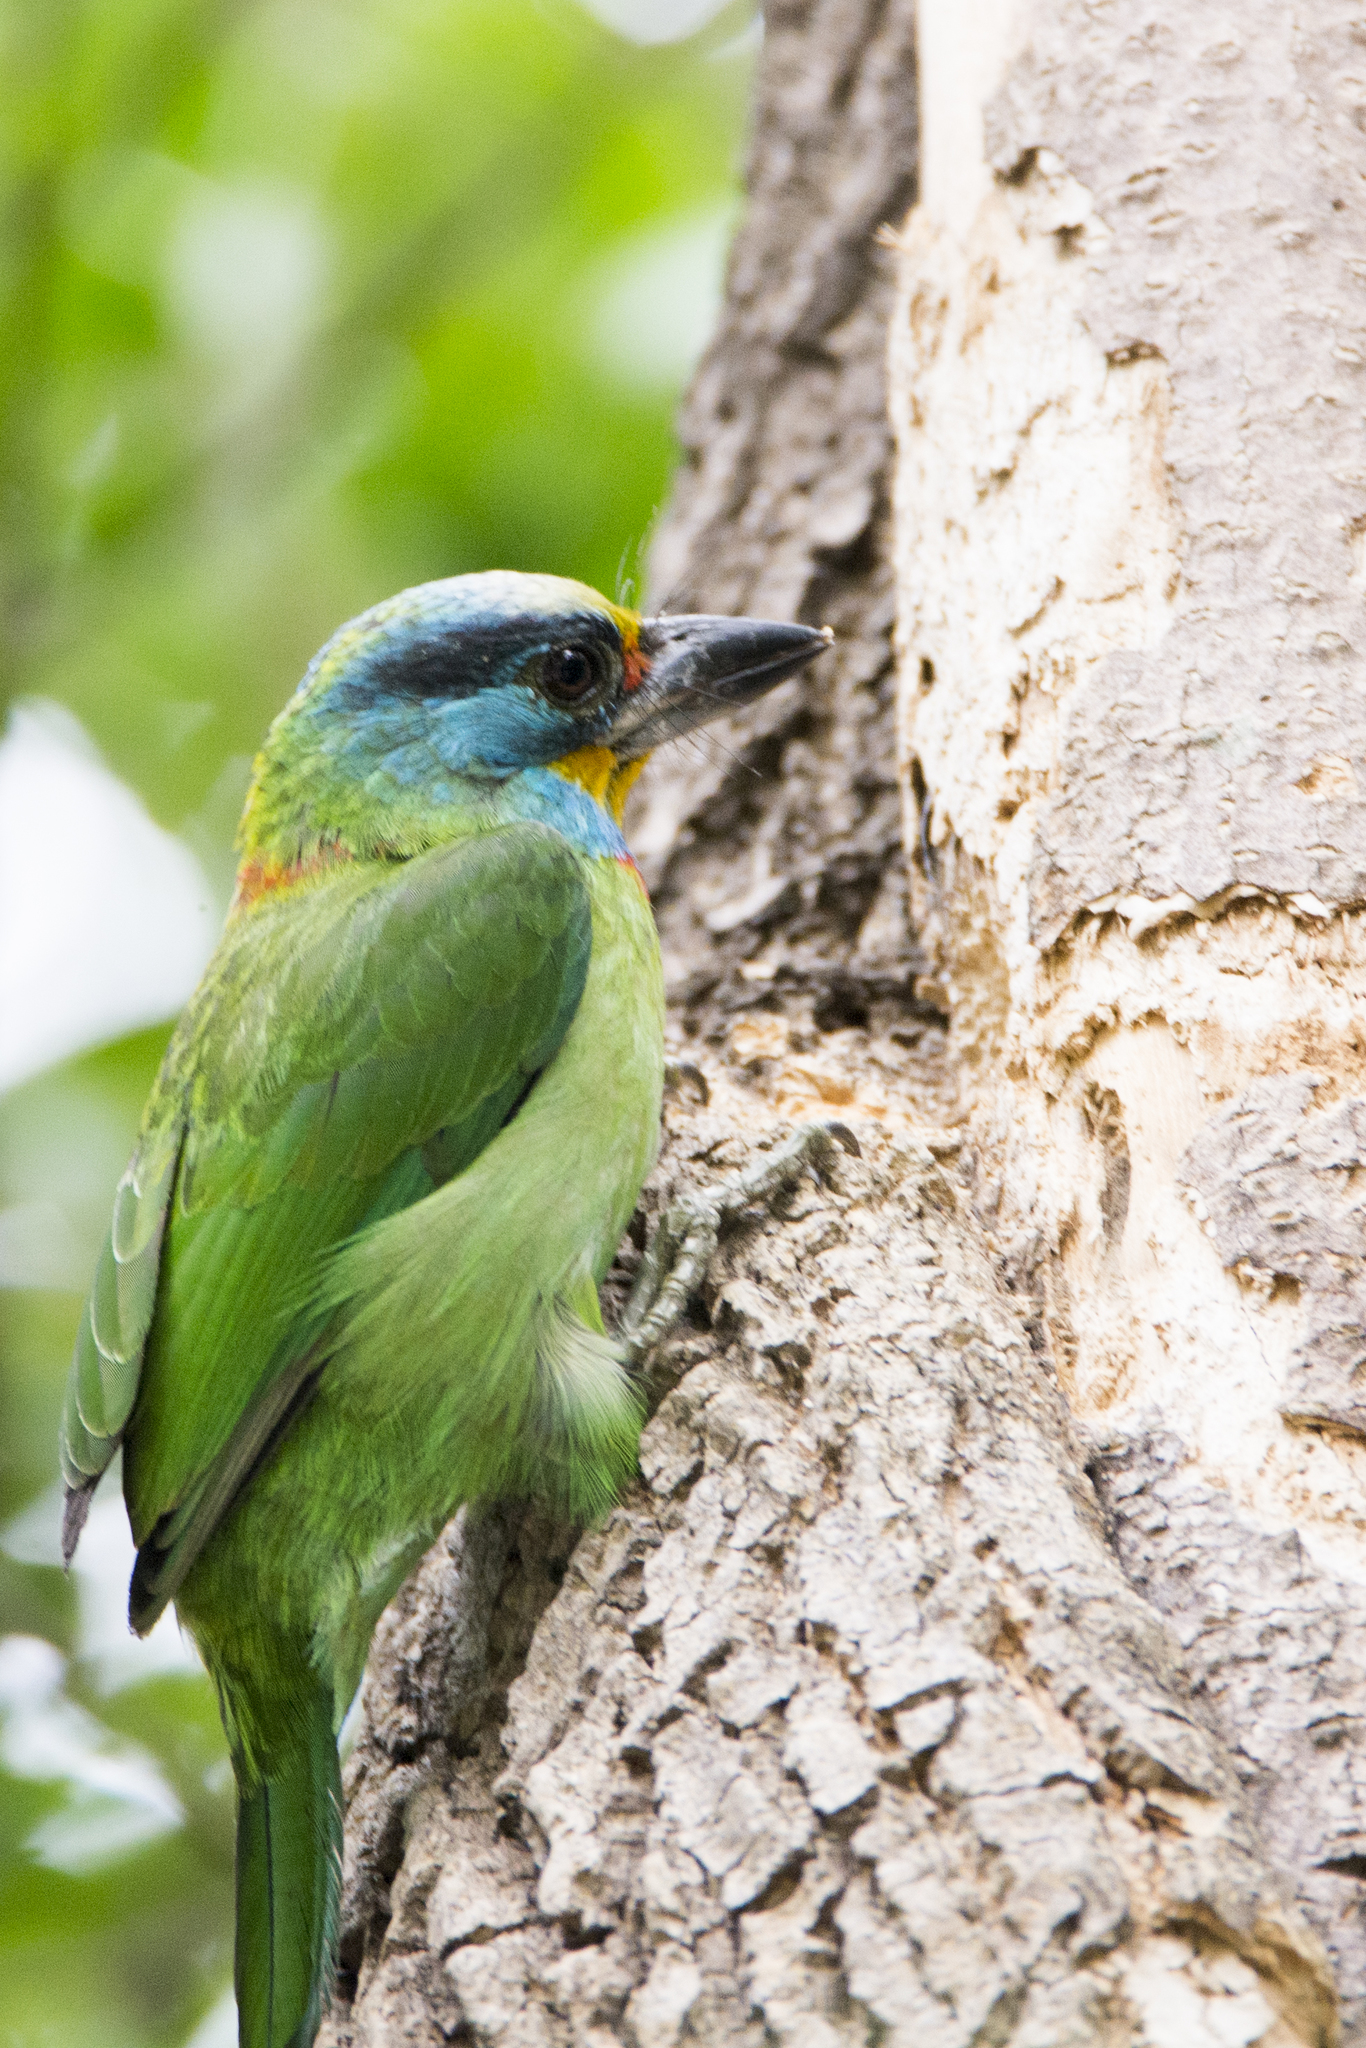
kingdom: Animalia
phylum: Chordata
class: Aves
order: Piciformes
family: Megalaimidae
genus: Psilopogon
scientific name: Psilopogon nuchalis
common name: Taiwan barbet
